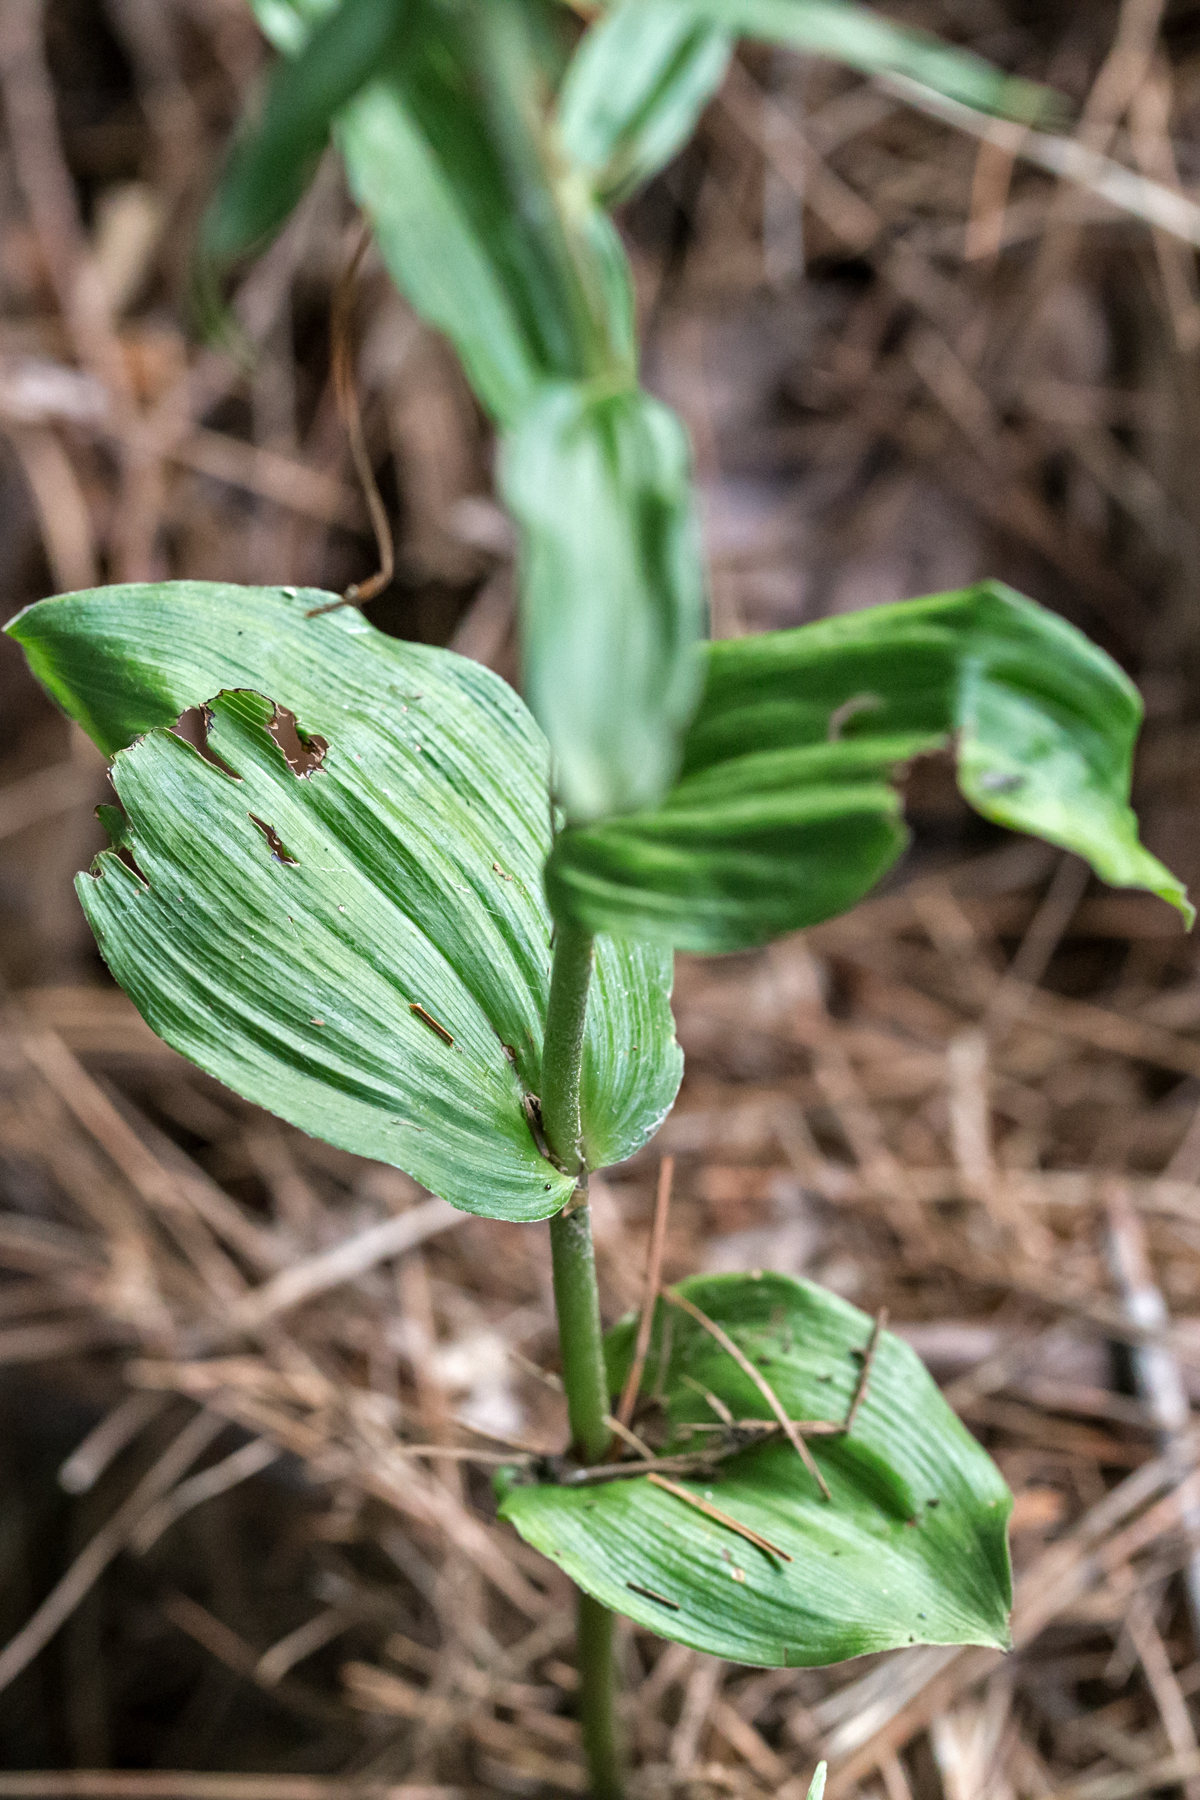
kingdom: Plantae
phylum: Tracheophyta
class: Liliopsida
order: Asparagales
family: Orchidaceae
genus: Epipactis
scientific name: Epipactis helleborine
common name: Broad-leaved helleborine
